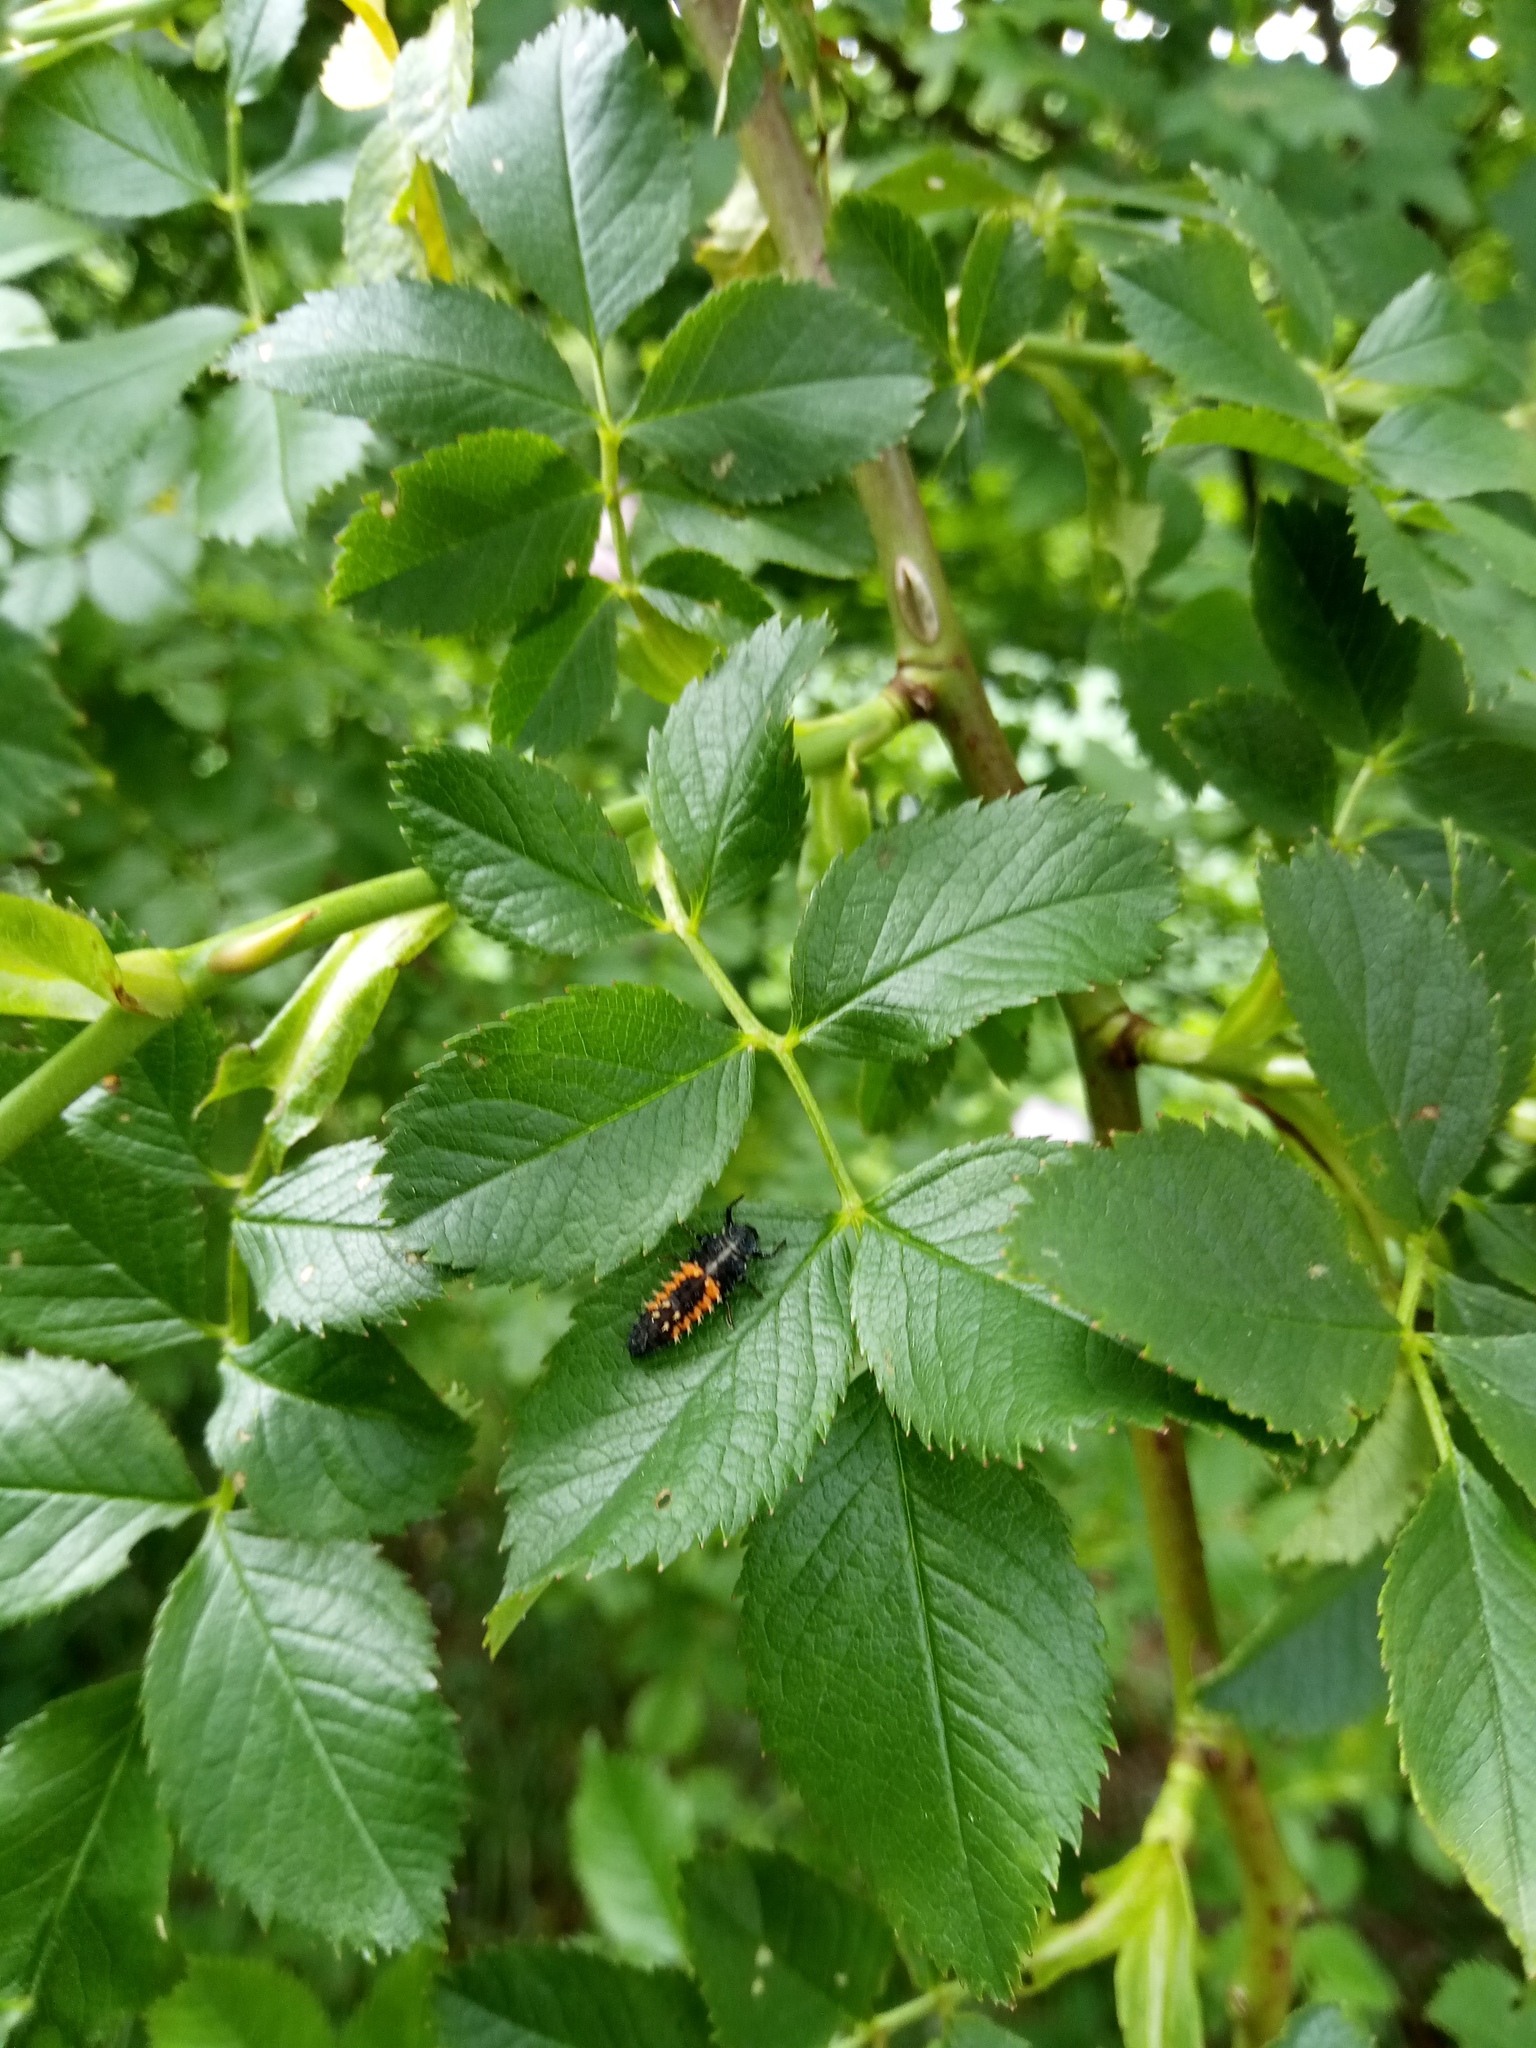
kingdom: Animalia
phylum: Arthropoda
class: Insecta
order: Coleoptera
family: Coccinellidae
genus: Harmonia
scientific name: Harmonia axyridis
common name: Harlequin ladybird
